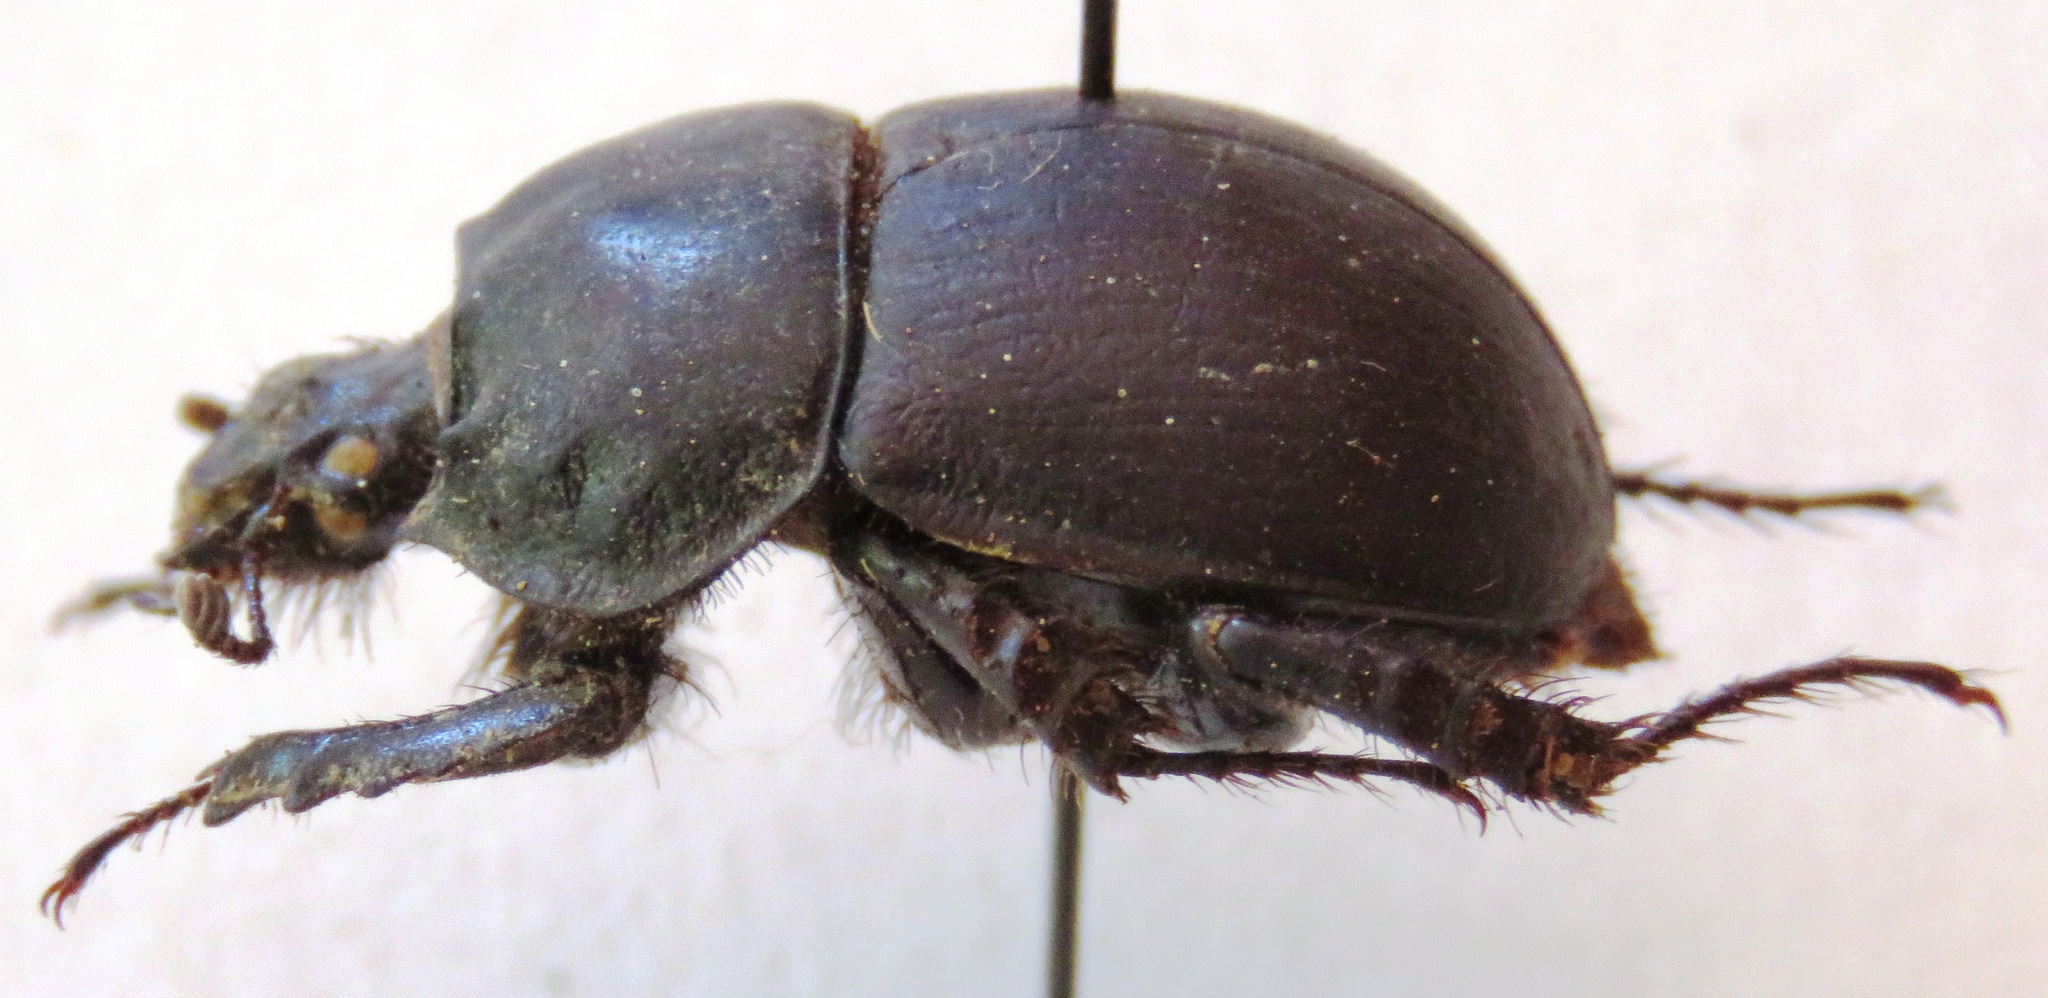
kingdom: Animalia
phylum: Arthropoda
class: Insecta
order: Coleoptera
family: Geotrupidae
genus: Chelotrupes
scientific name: Chelotrupes matutinalis
